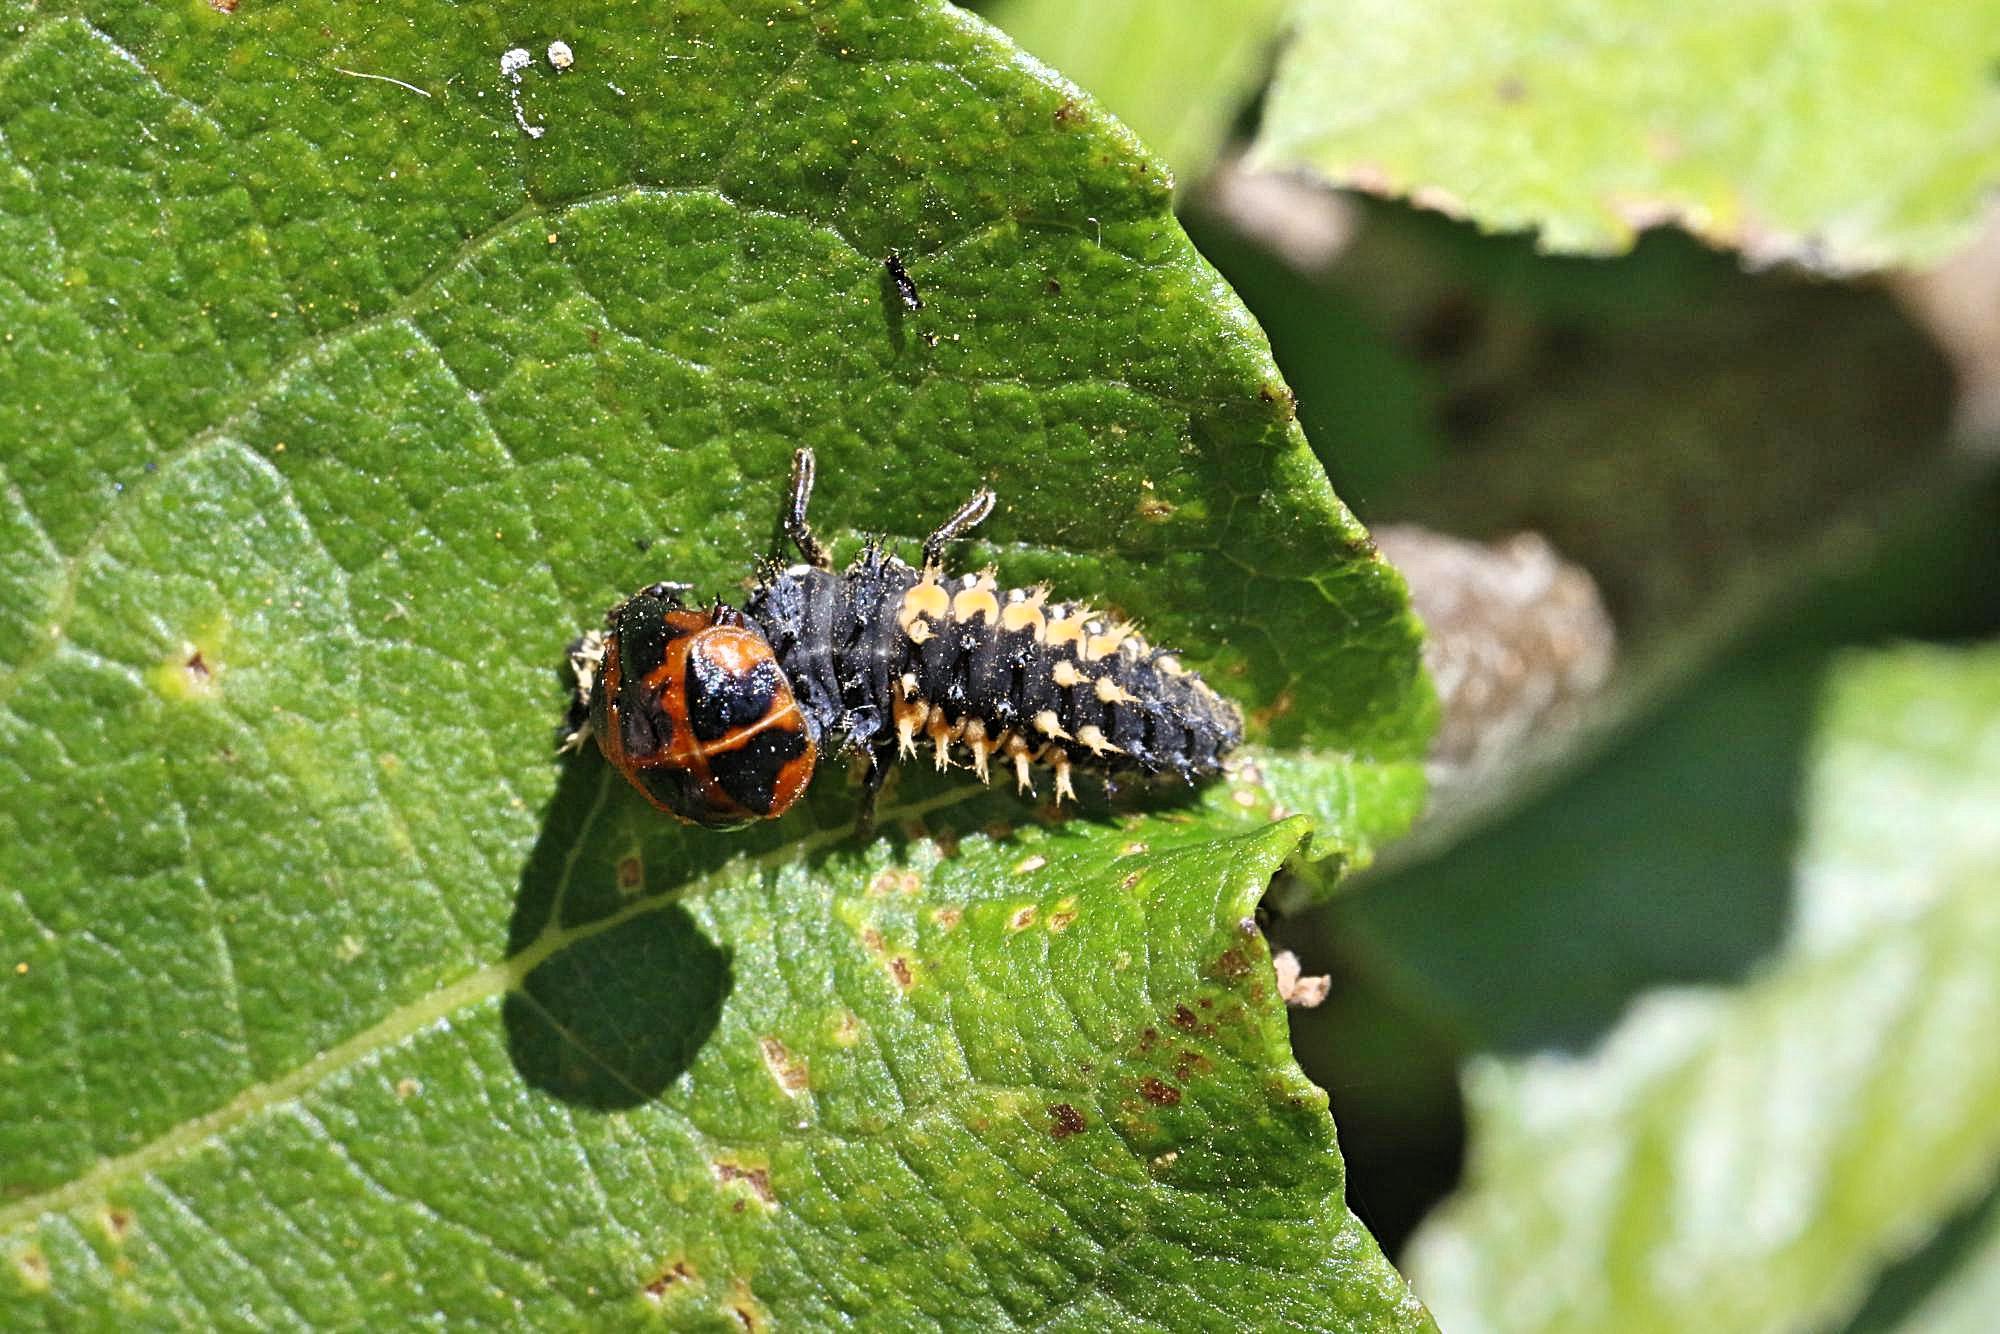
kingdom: Animalia
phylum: Arthropoda
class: Insecta
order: Coleoptera
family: Coccinellidae
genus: Harmonia
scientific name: Harmonia axyridis
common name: Harlequin ladybird
